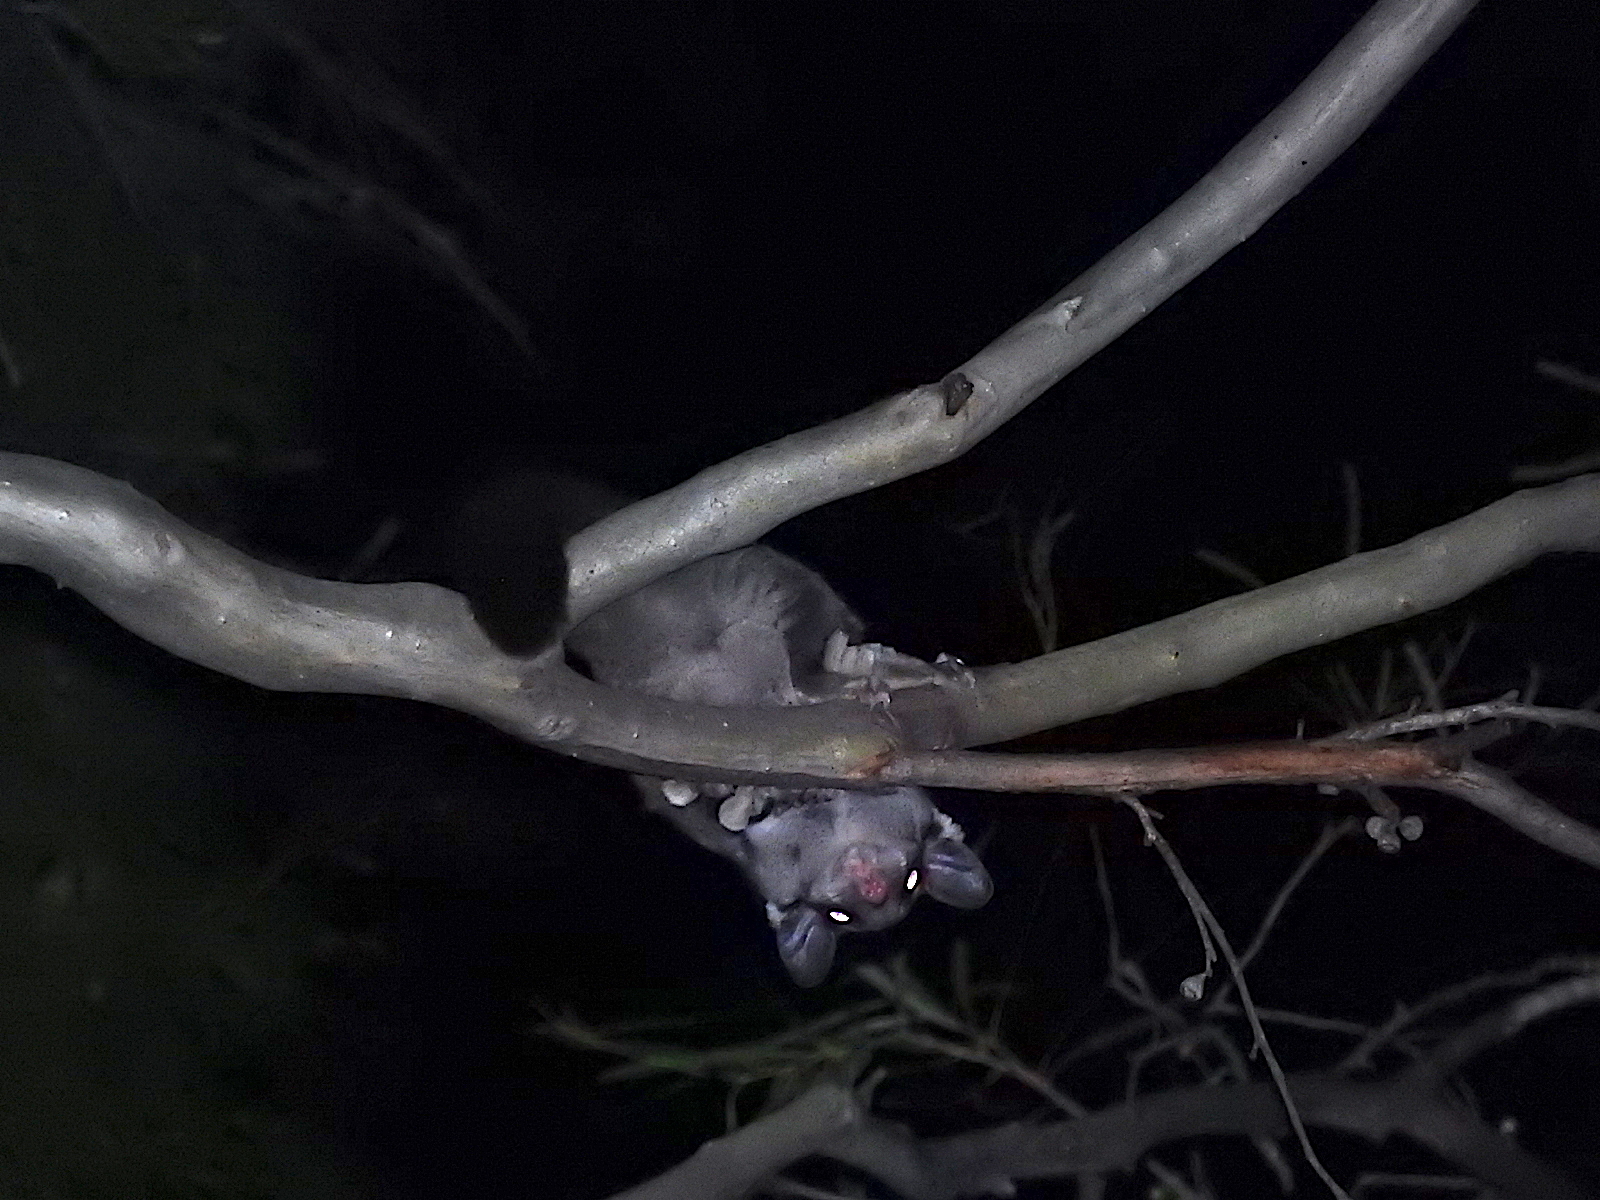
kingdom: Animalia
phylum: Chordata
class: Mammalia
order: Diprotodontia
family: Petauridae
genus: Petaurus
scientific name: Petaurus breviceps
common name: Sugar glider
